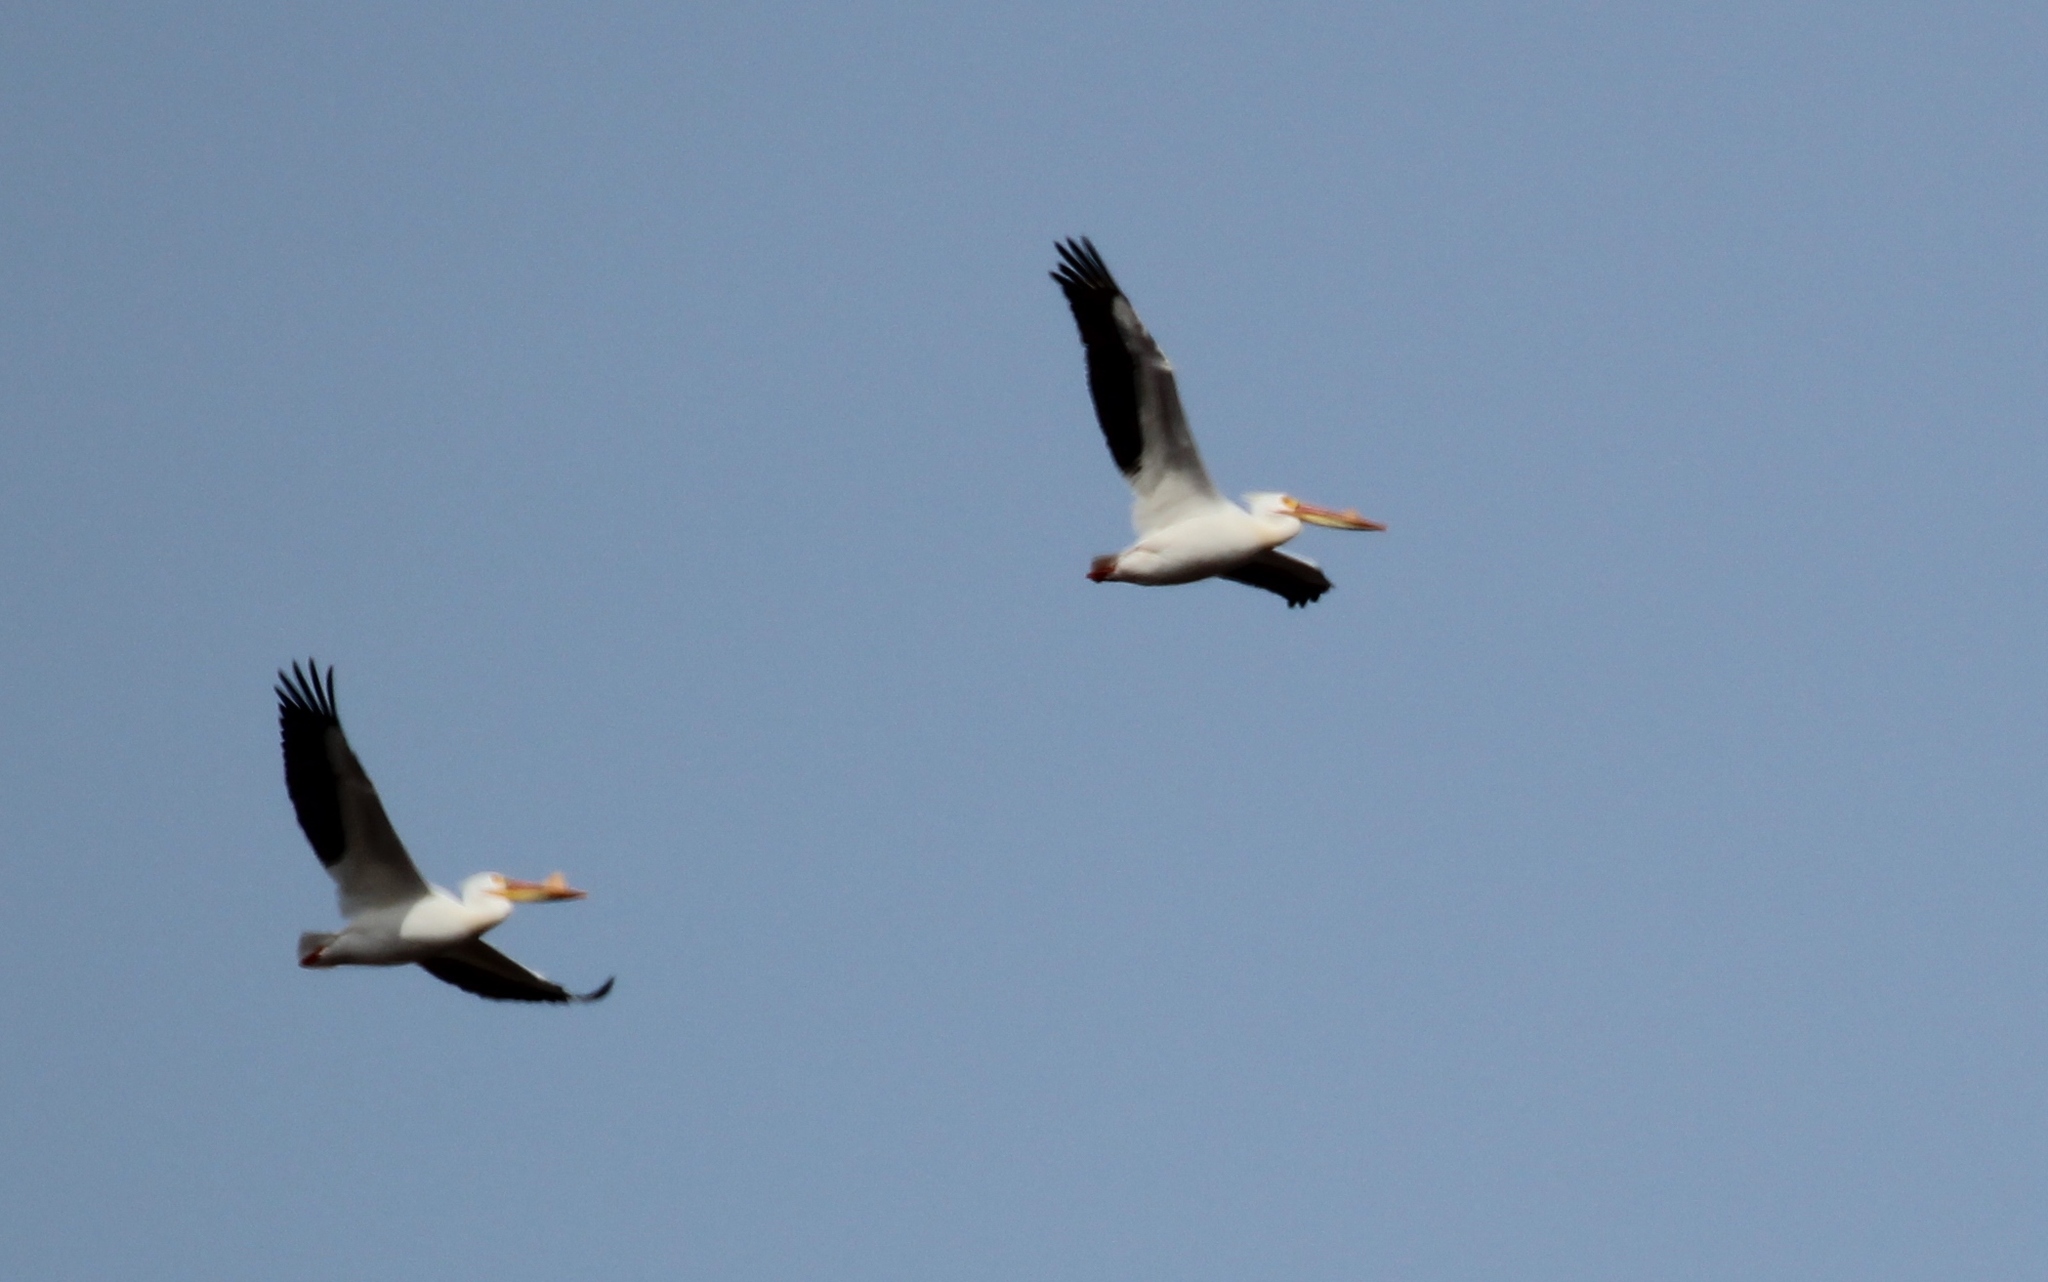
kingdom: Animalia
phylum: Chordata
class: Aves
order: Pelecaniformes
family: Pelecanidae
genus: Pelecanus
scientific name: Pelecanus erythrorhynchos
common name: American white pelican
